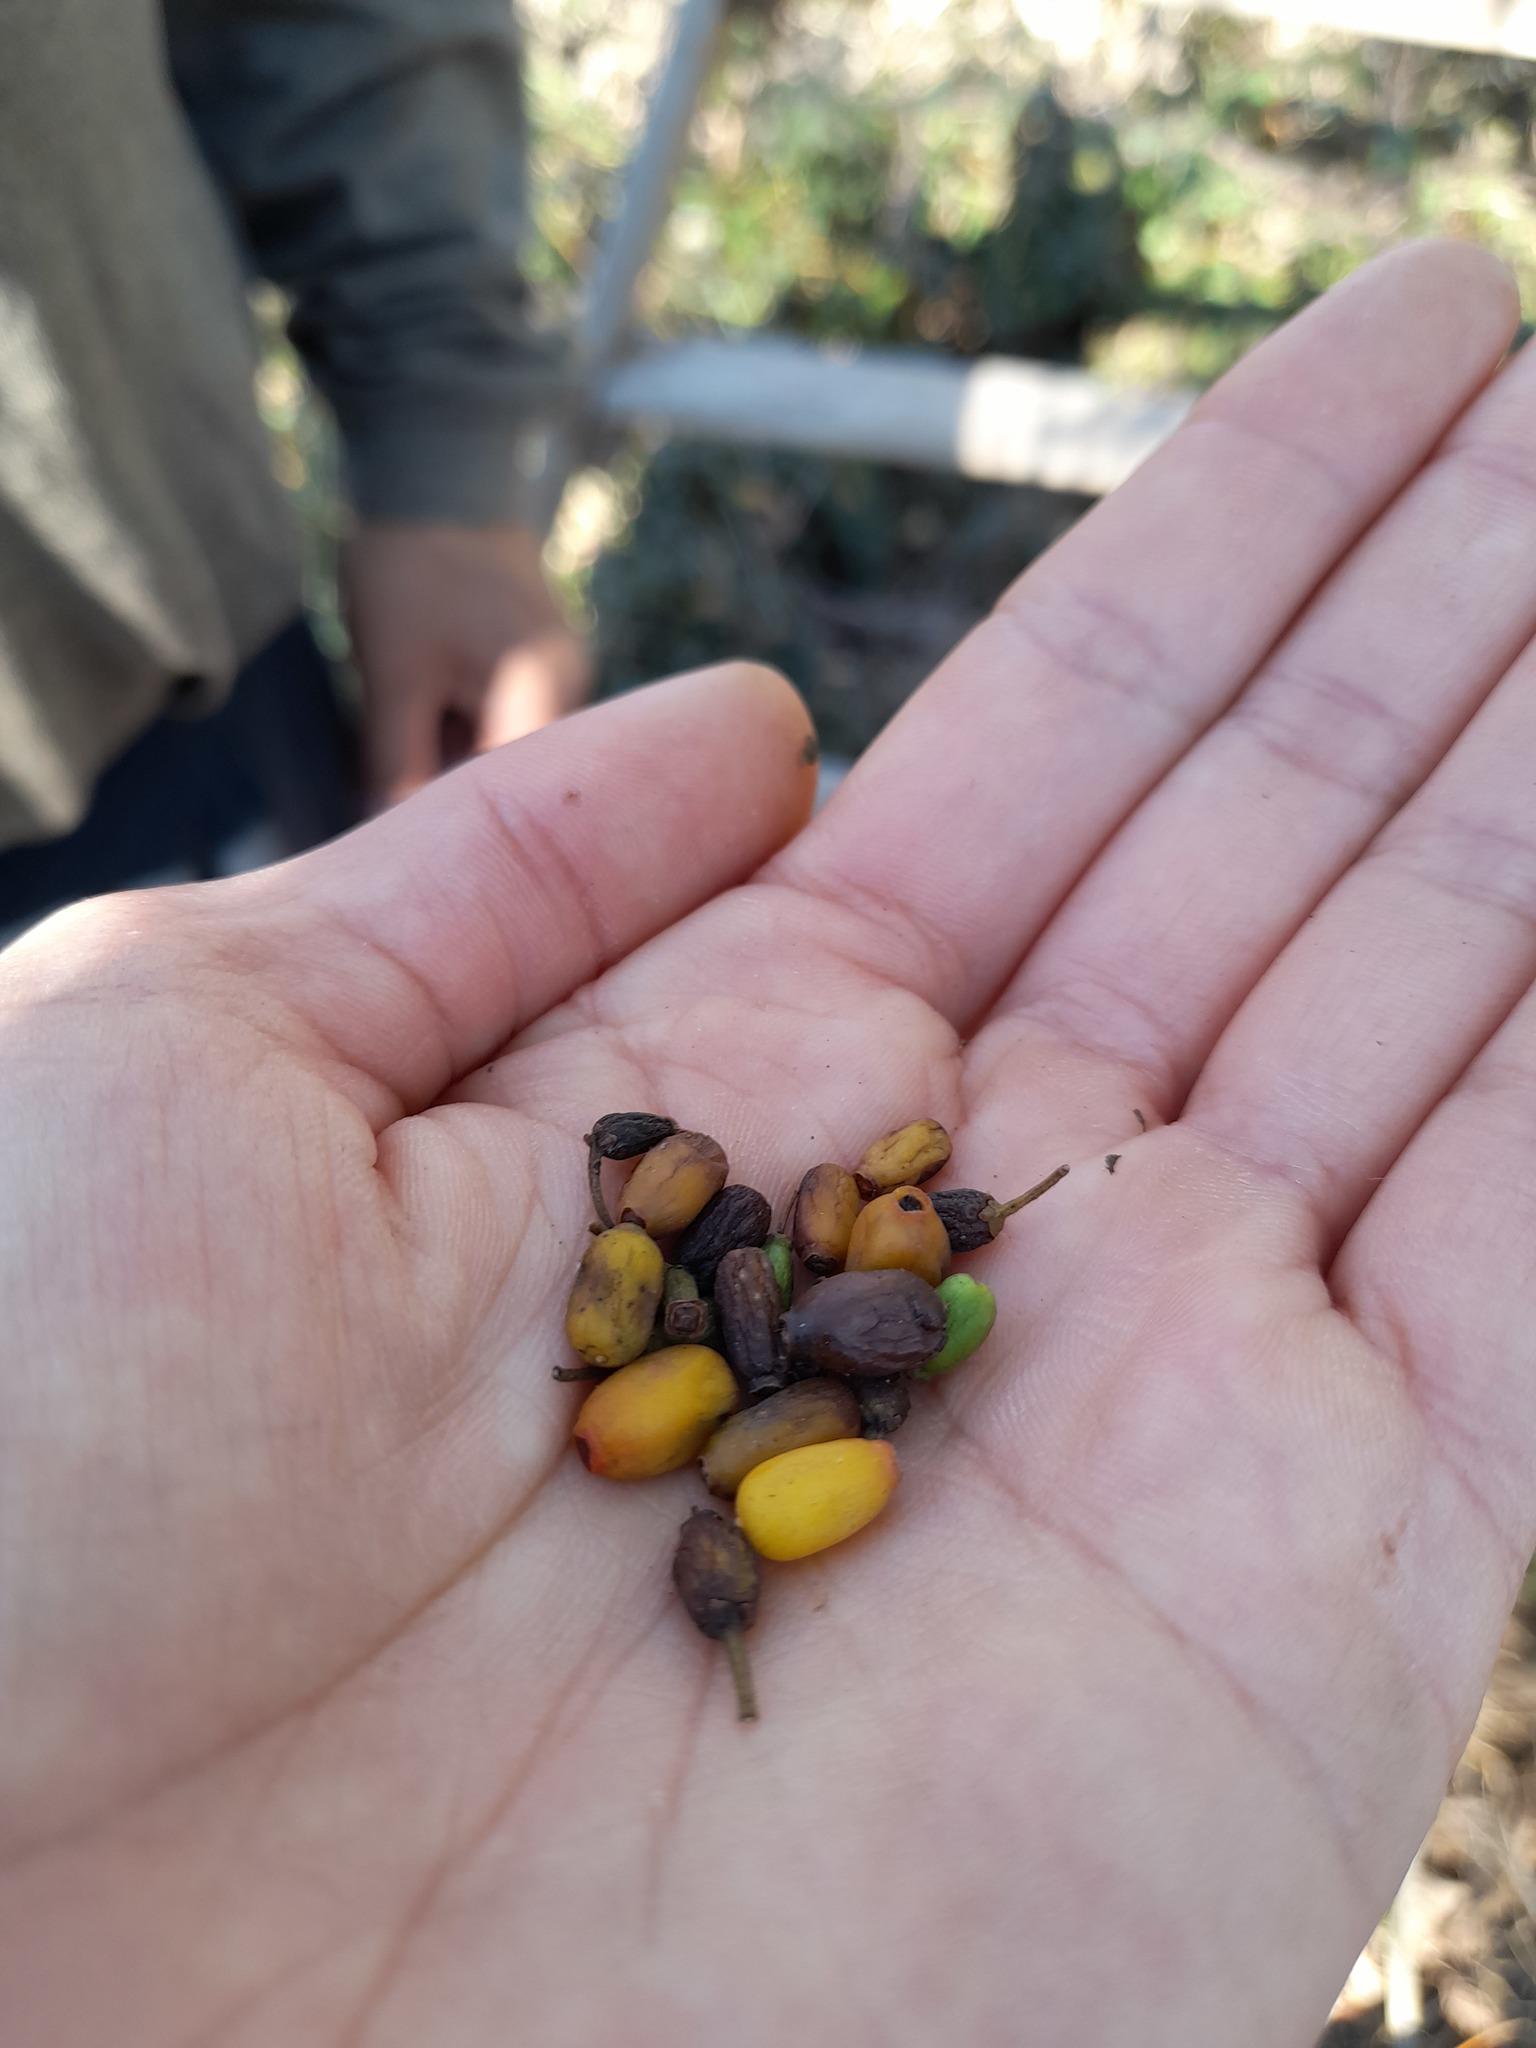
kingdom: Plantae
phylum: Tracheophyta
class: Magnoliopsida
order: Santalales
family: Loranthaceae
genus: Tristerix
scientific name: Tristerix corymbosus
